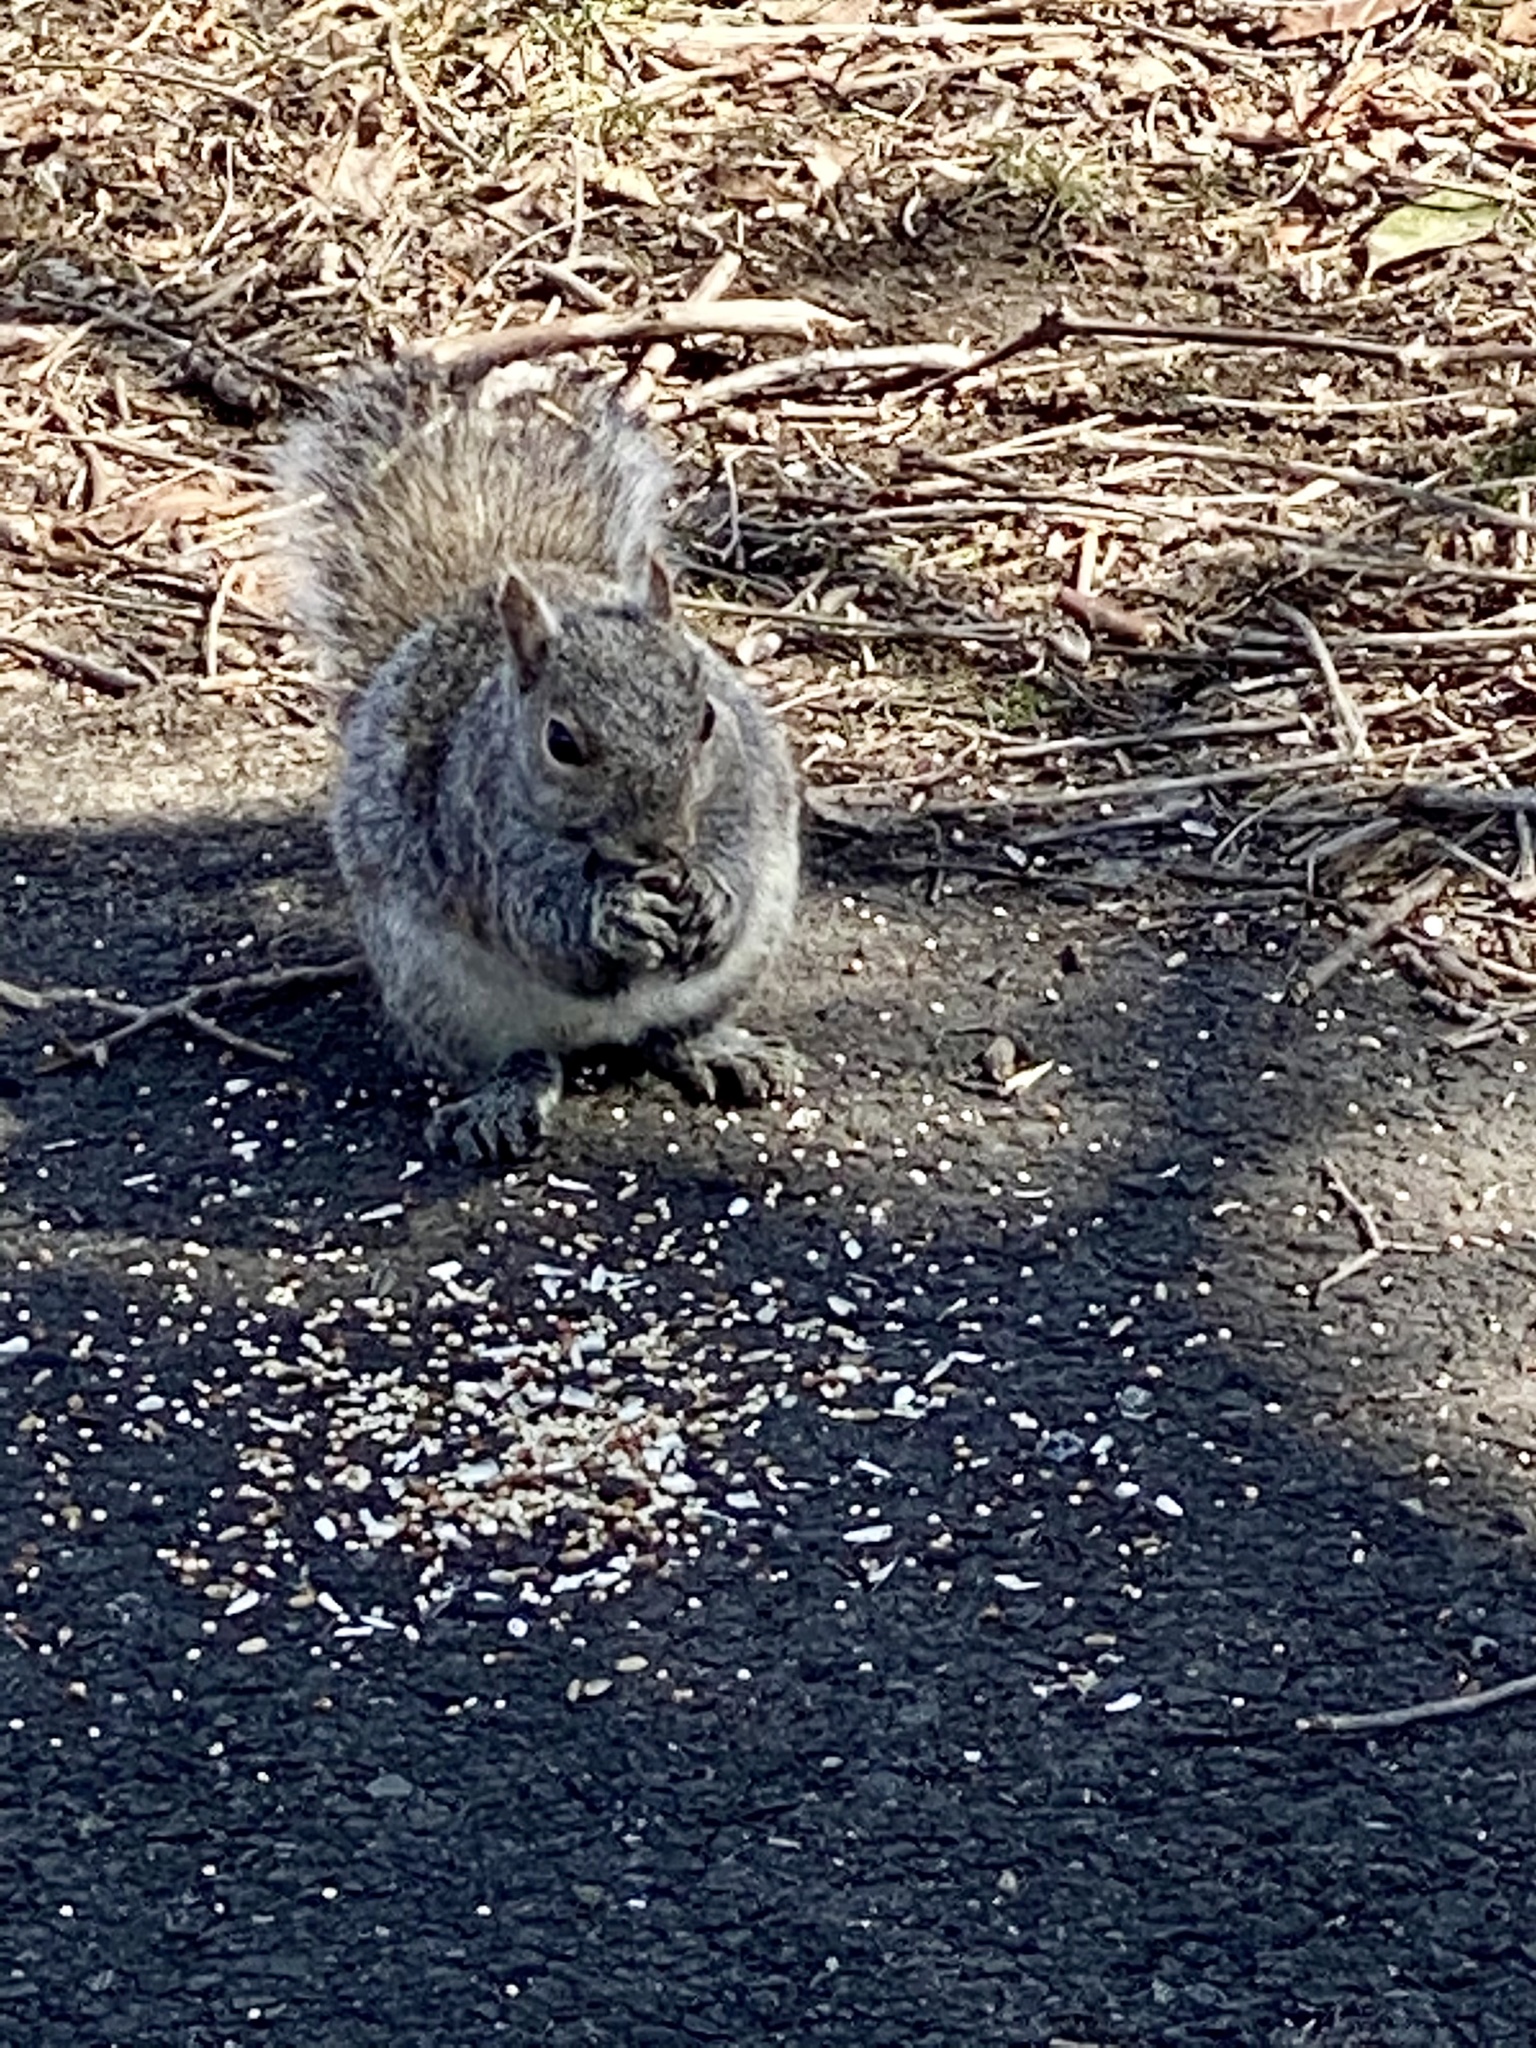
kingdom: Animalia
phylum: Chordata
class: Mammalia
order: Rodentia
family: Sciuridae
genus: Sciurus
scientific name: Sciurus carolinensis
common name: Eastern gray squirrel
